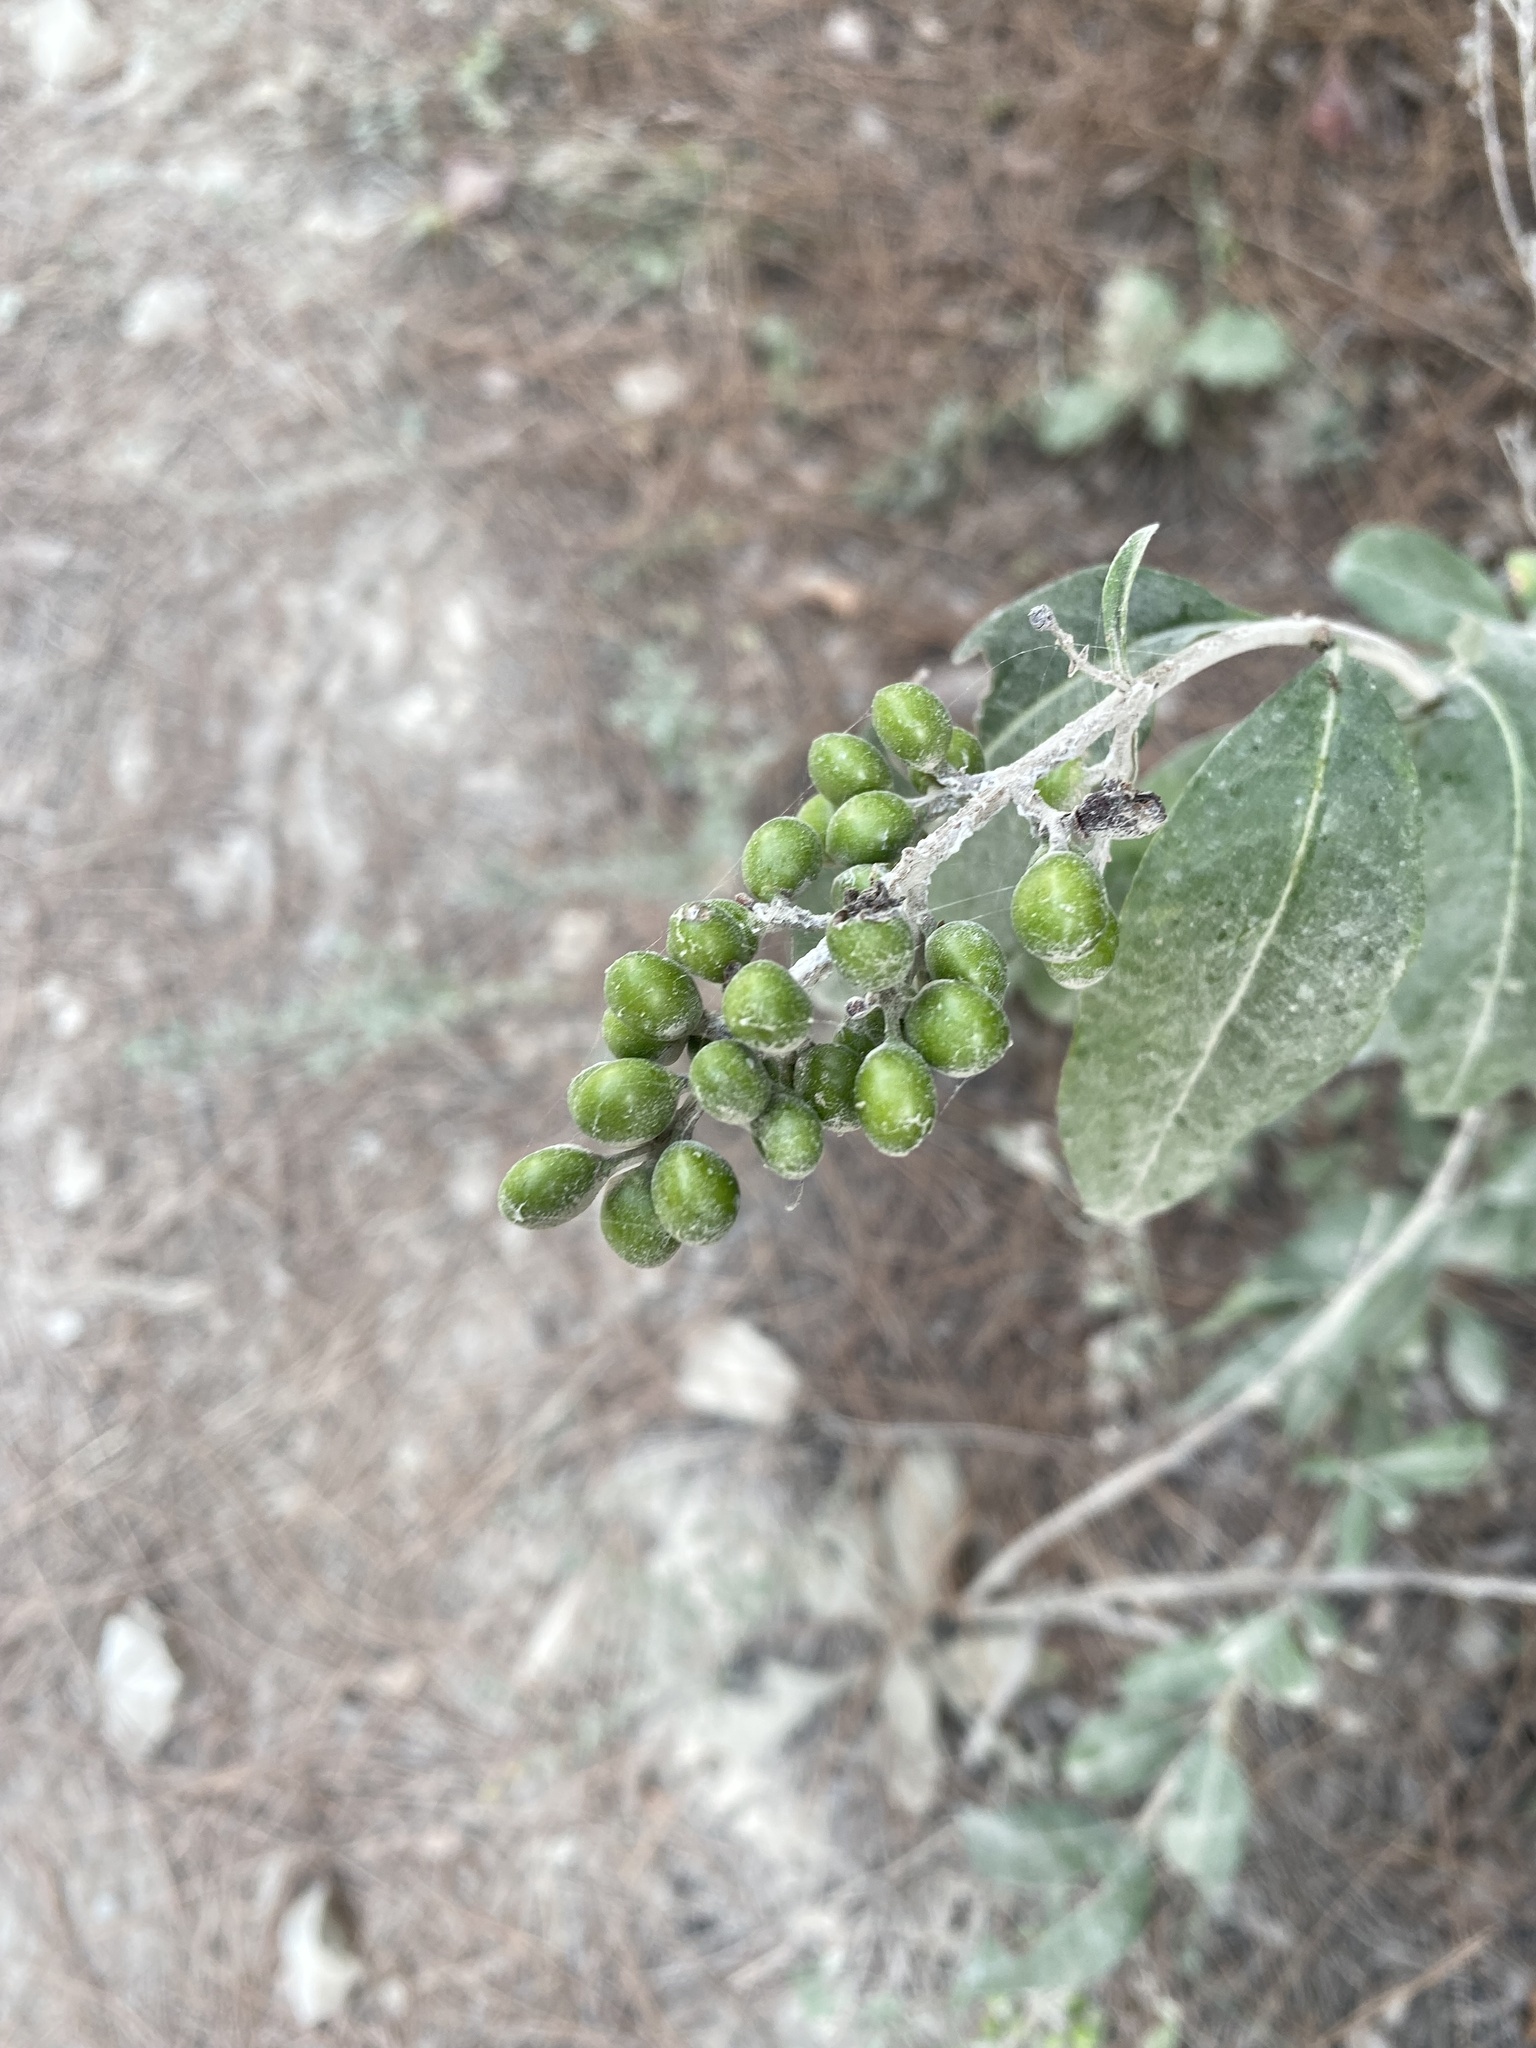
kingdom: Plantae
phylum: Tracheophyta
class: Magnoliopsida
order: Lamiales
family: Oleaceae
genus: Ligustrum
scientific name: Ligustrum vulgare
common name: Wild privet
